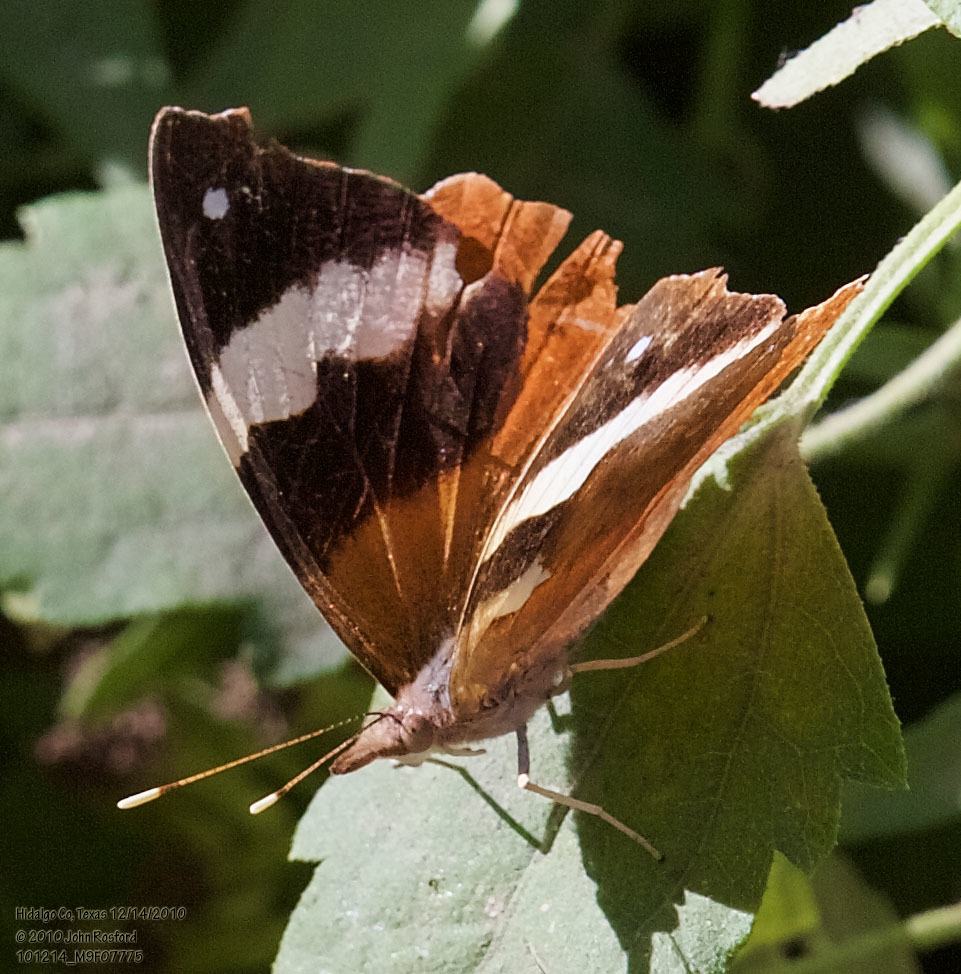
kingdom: Animalia
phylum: Arthropoda
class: Insecta
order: Lepidoptera
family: Nymphalidae
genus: Epiphile
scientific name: Epiphile adrasta
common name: Common banner
